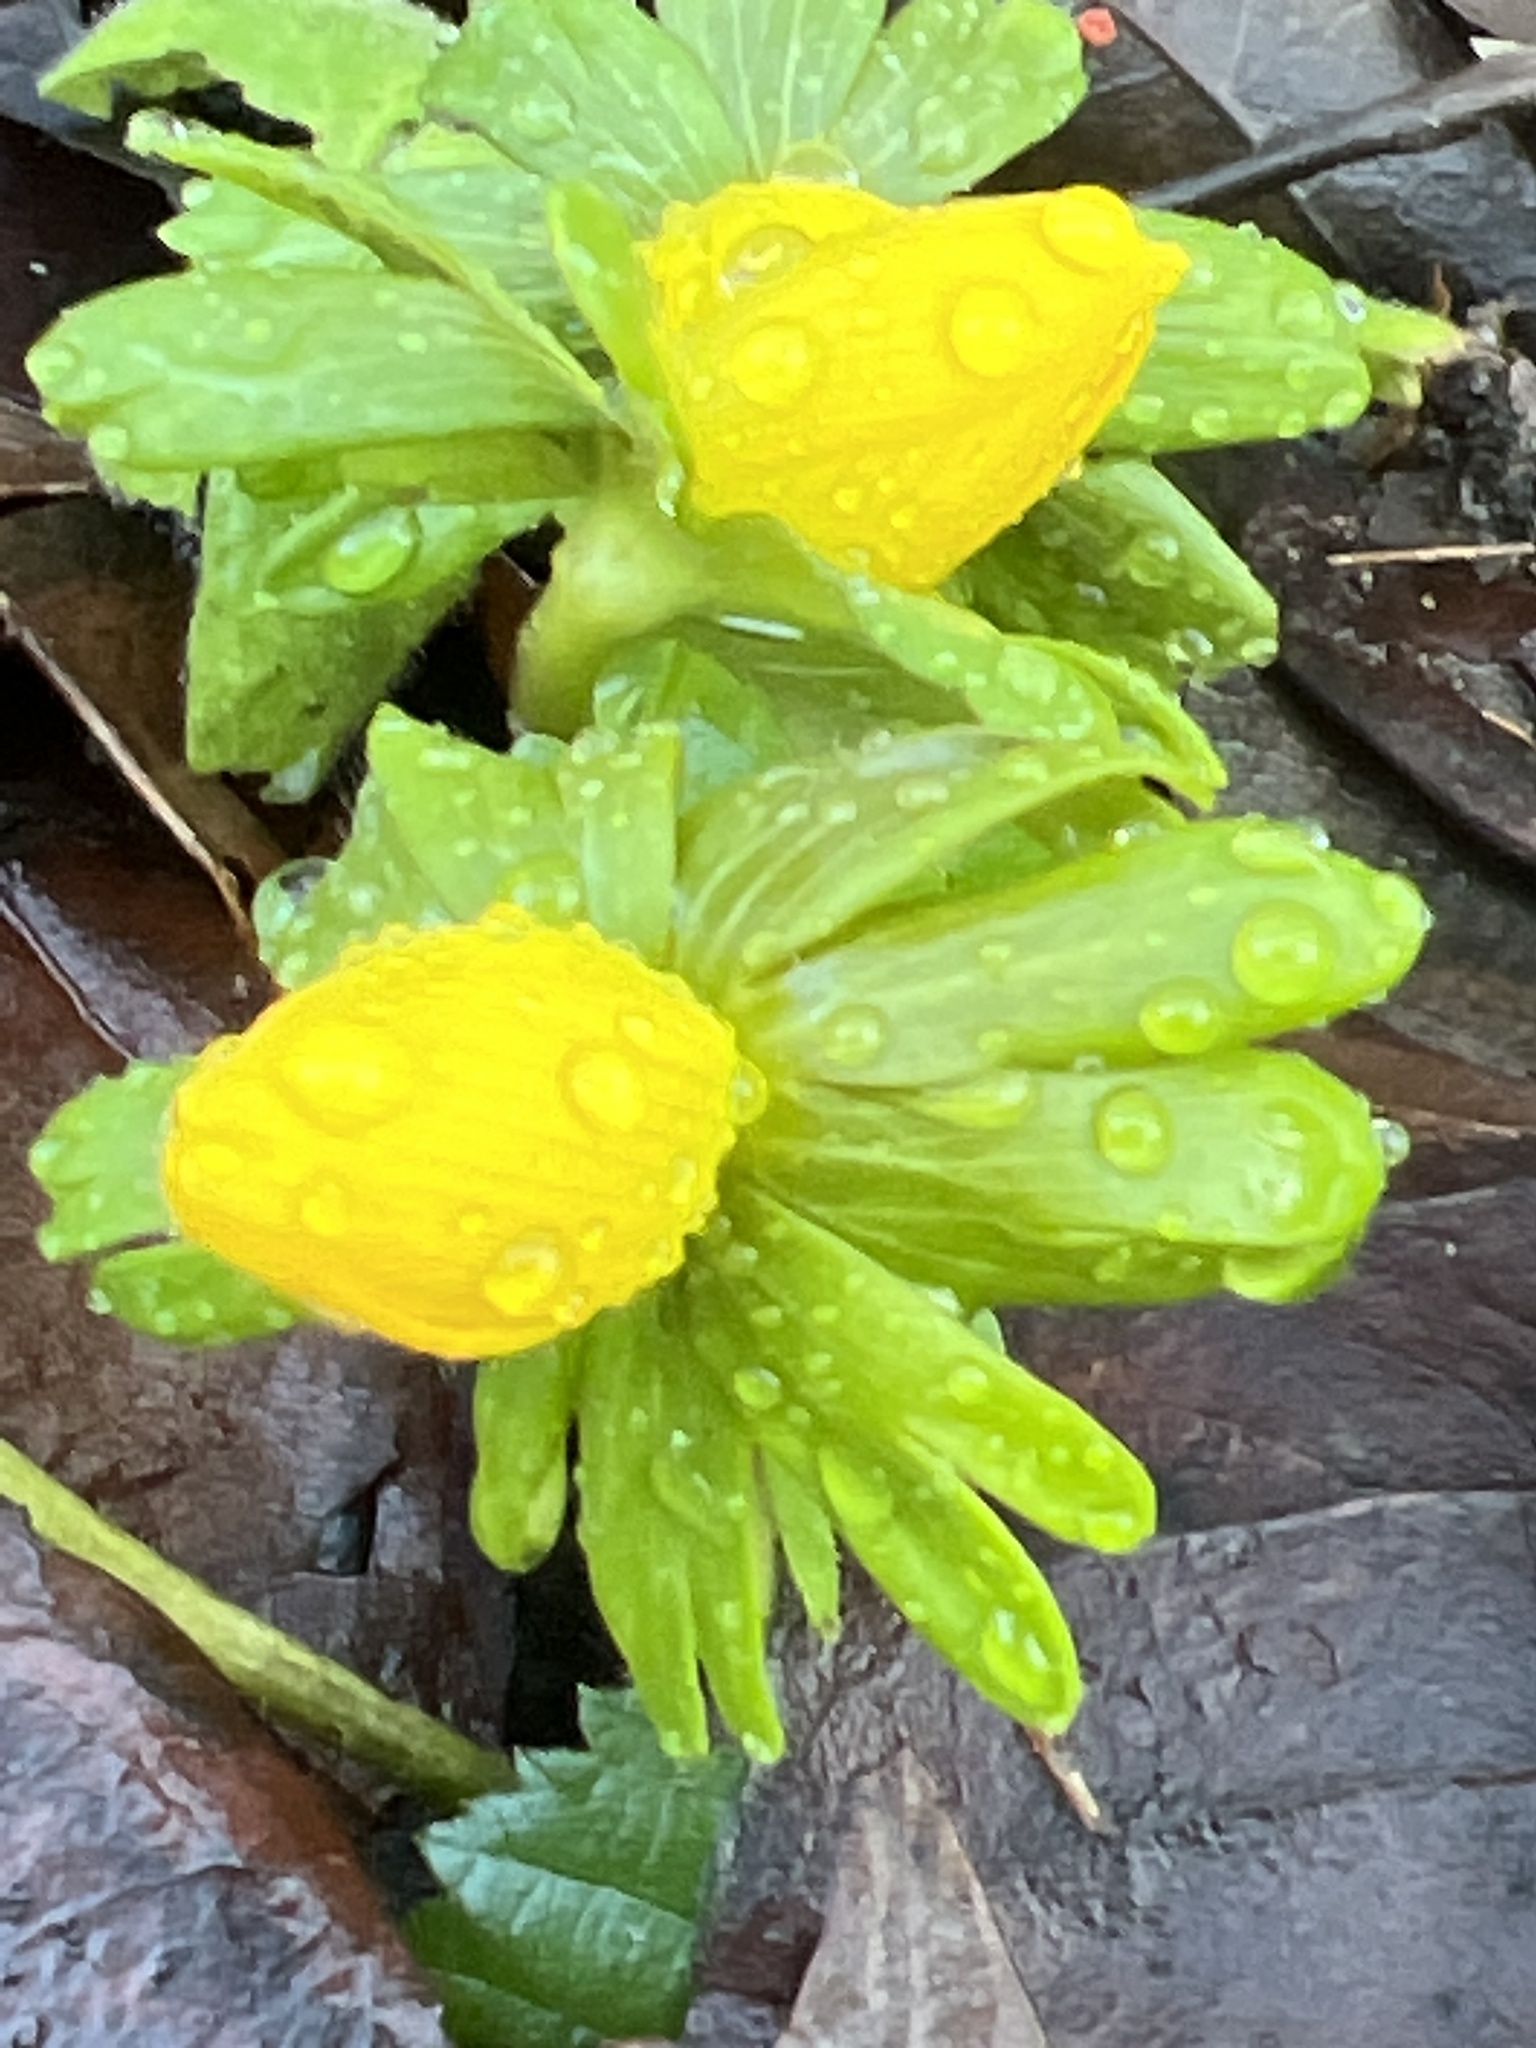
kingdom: Plantae
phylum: Tracheophyta
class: Magnoliopsida
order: Ranunculales
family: Ranunculaceae
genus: Eranthis
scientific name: Eranthis hyemalis
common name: Winter aconite
